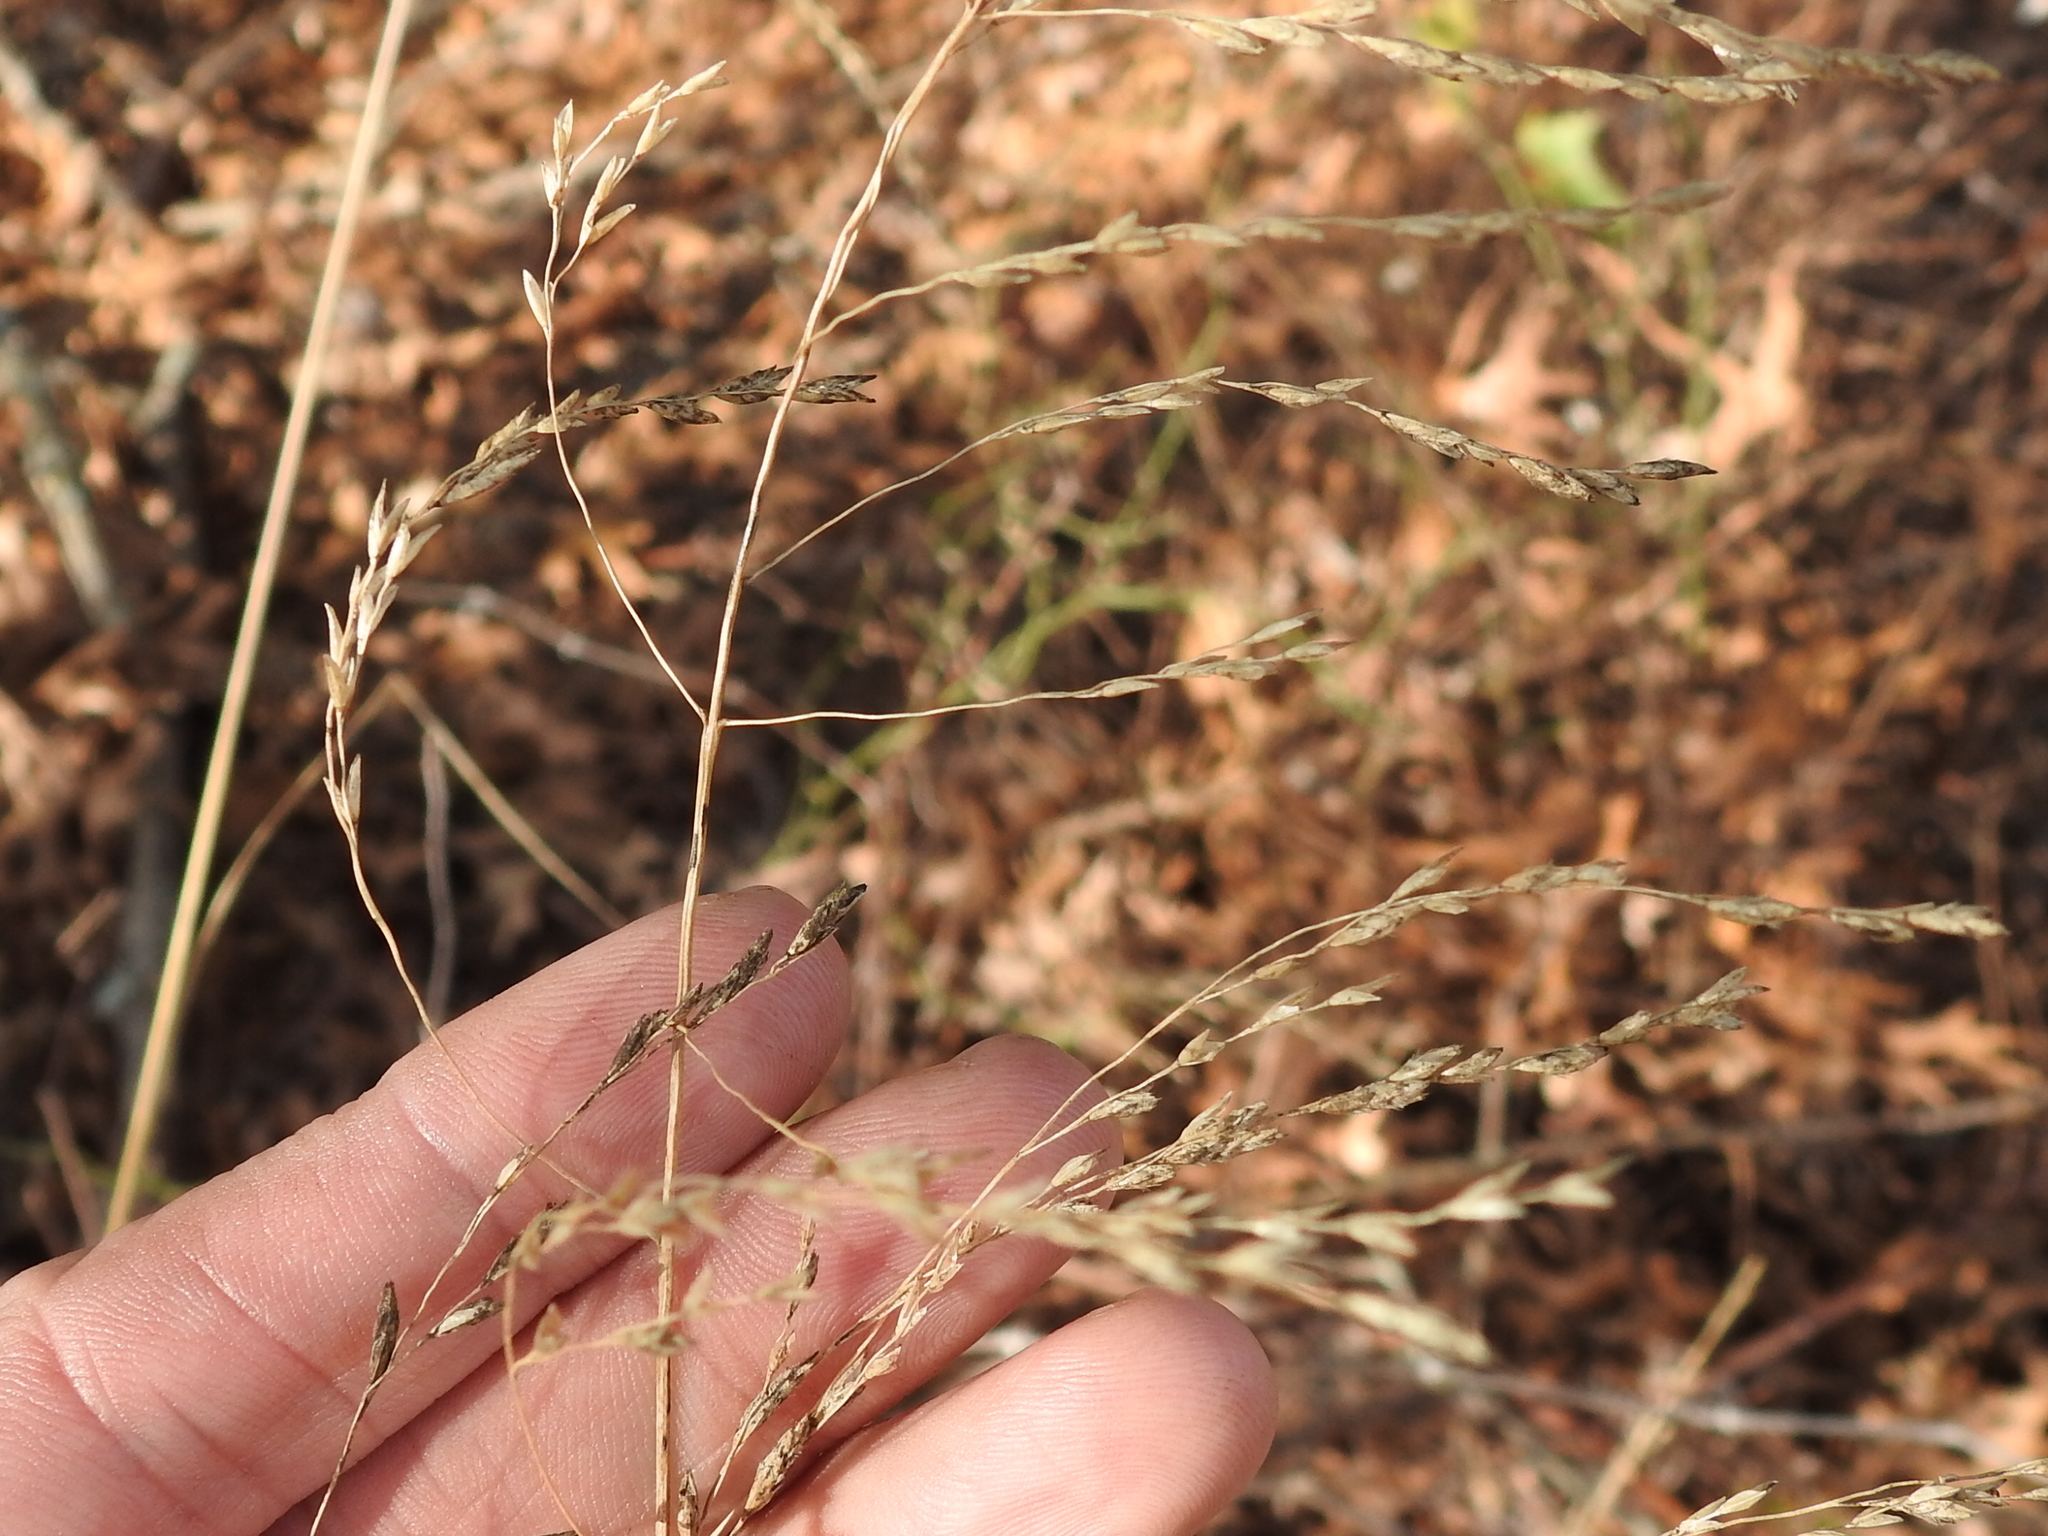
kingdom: Plantae
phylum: Tracheophyta
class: Liliopsida
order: Poales
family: Poaceae
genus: Tridens
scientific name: Tridens flavus
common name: Purpletop
